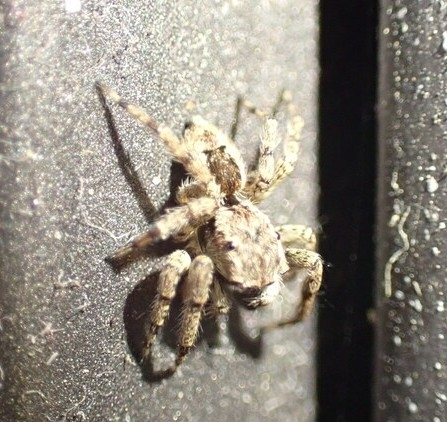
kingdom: Animalia
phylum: Arthropoda
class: Arachnida
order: Araneae
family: Salticidae
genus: Mexigonus
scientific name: Mexigonus minutus
